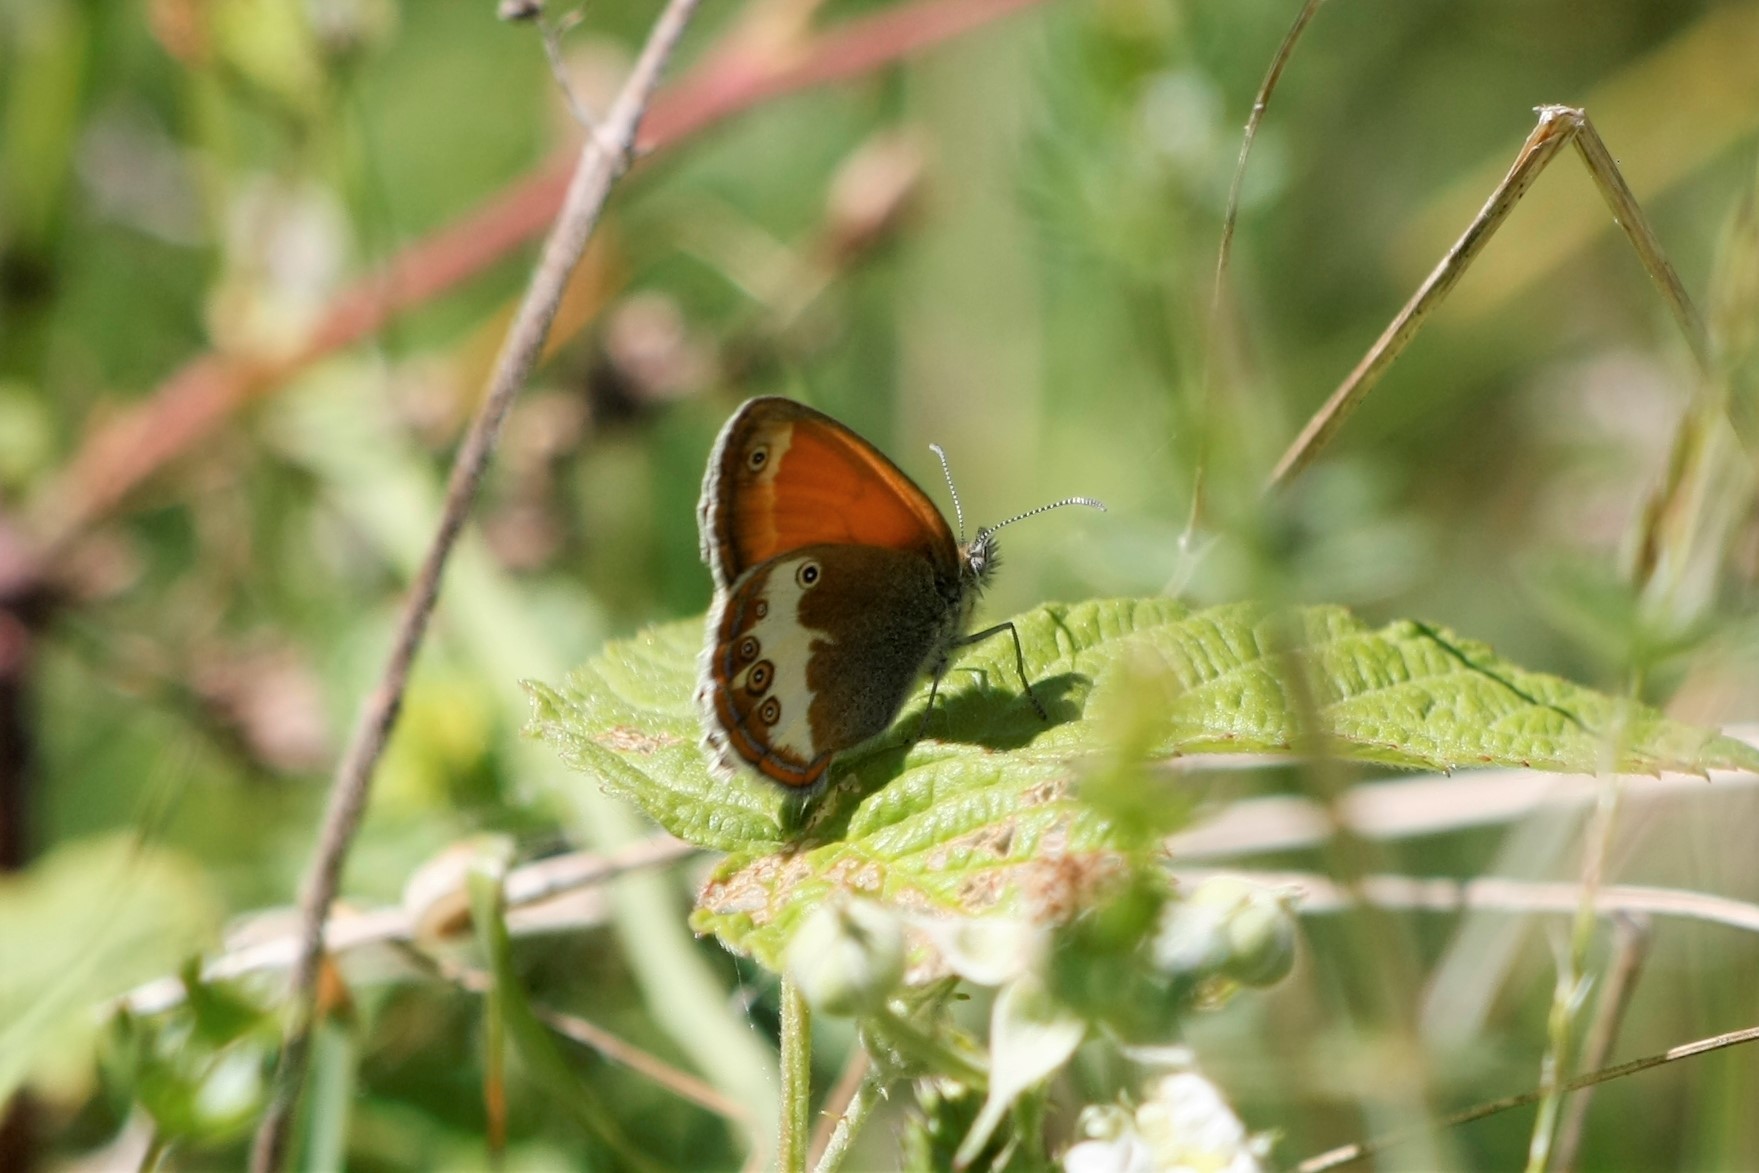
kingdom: Animalia
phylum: Arthropoda
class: Insecta
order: Lepidoptera
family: Nymphalidae
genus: Coenonympha
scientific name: Coenonympha arcania
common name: Pearly heath
